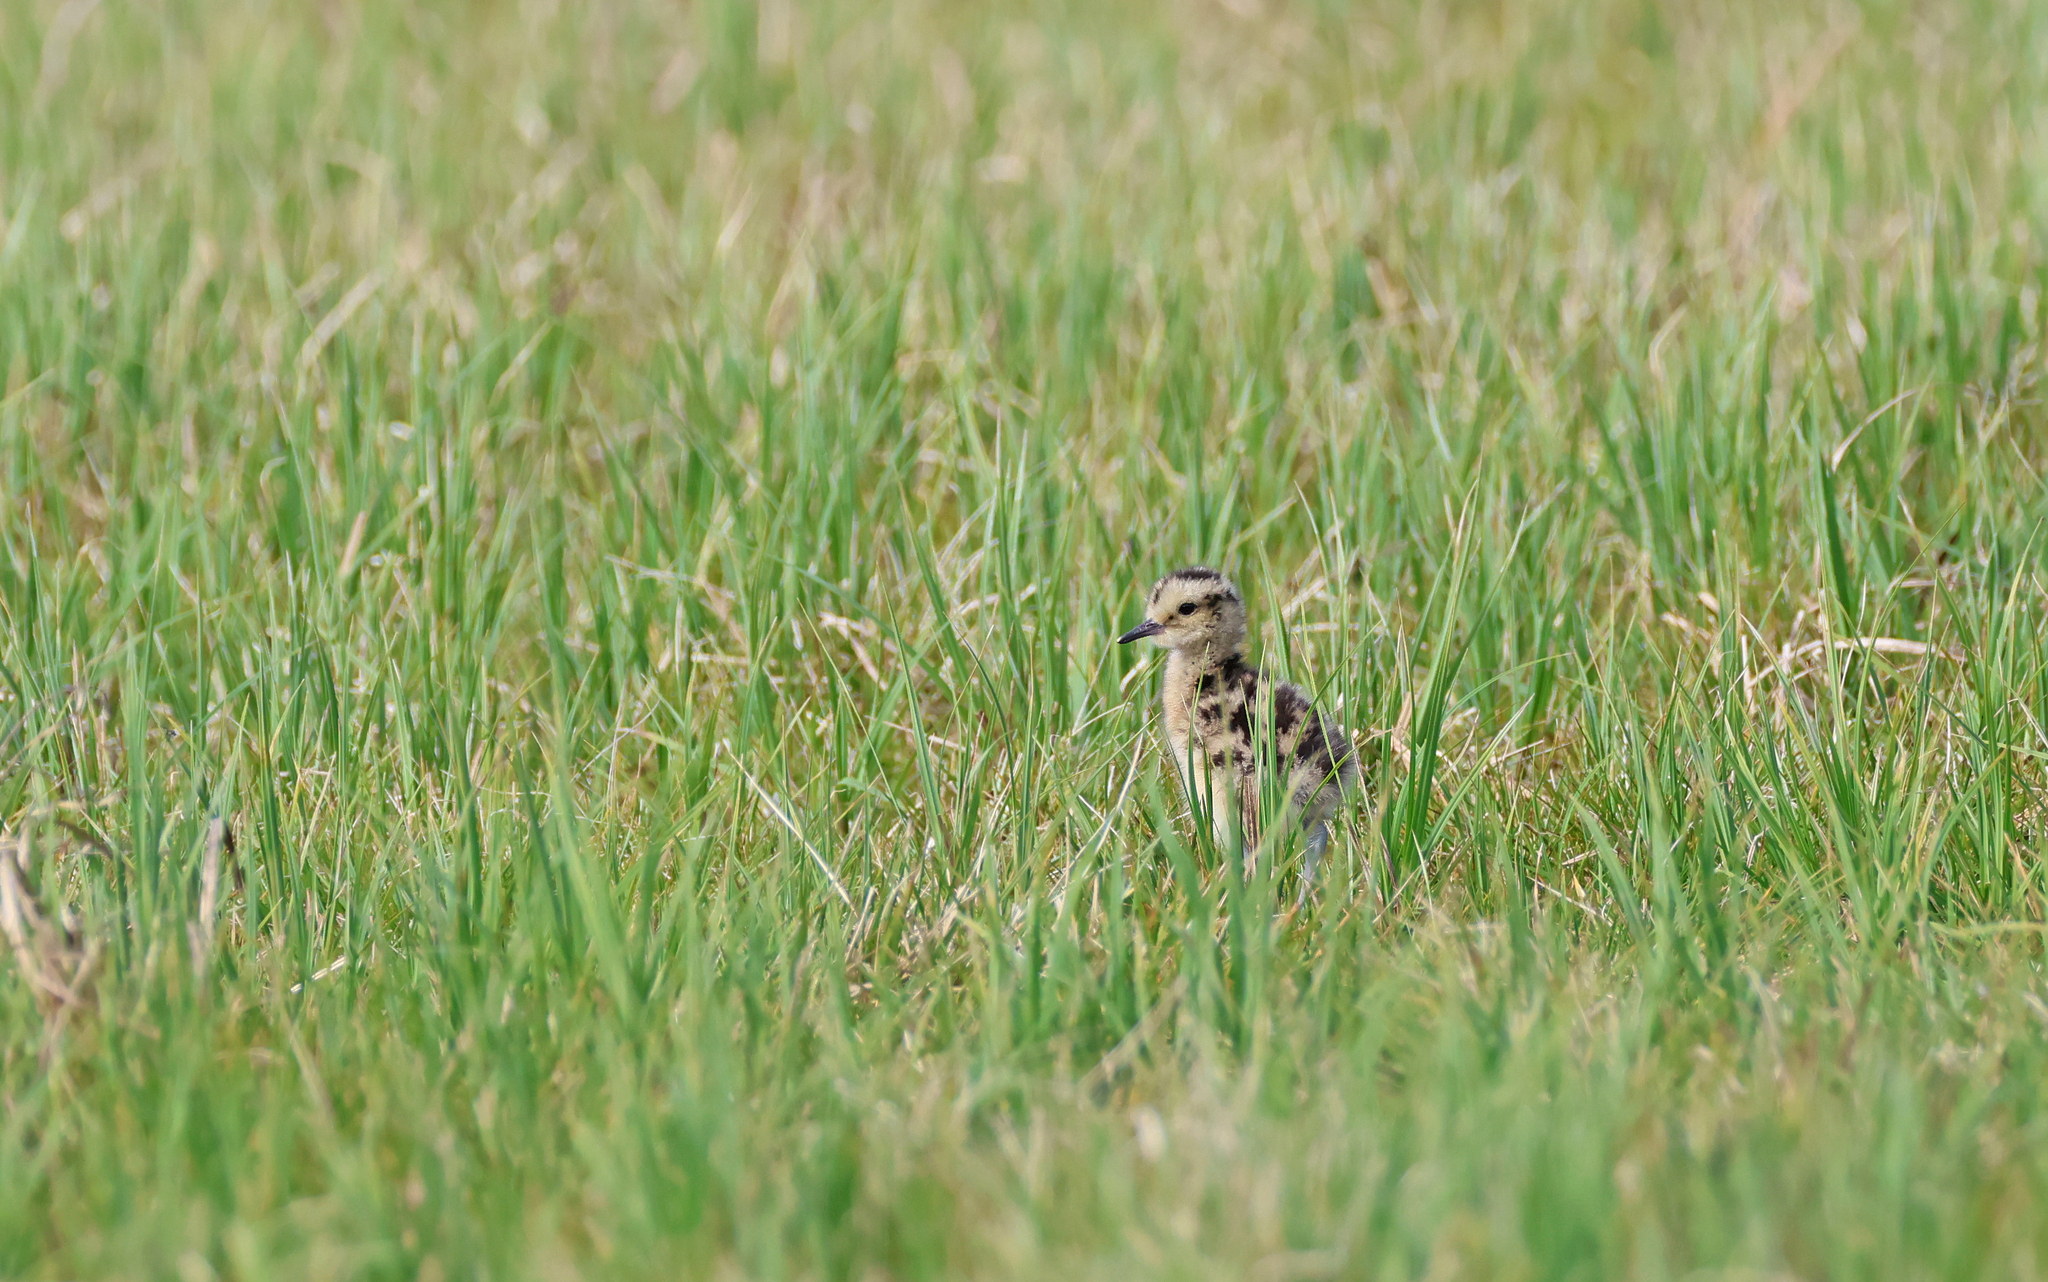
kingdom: Animalia
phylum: Chordata
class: Aves
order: Charadriiformes
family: Scolopacidae
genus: Numenius
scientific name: Numenius arquata
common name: Eurasian curlew
